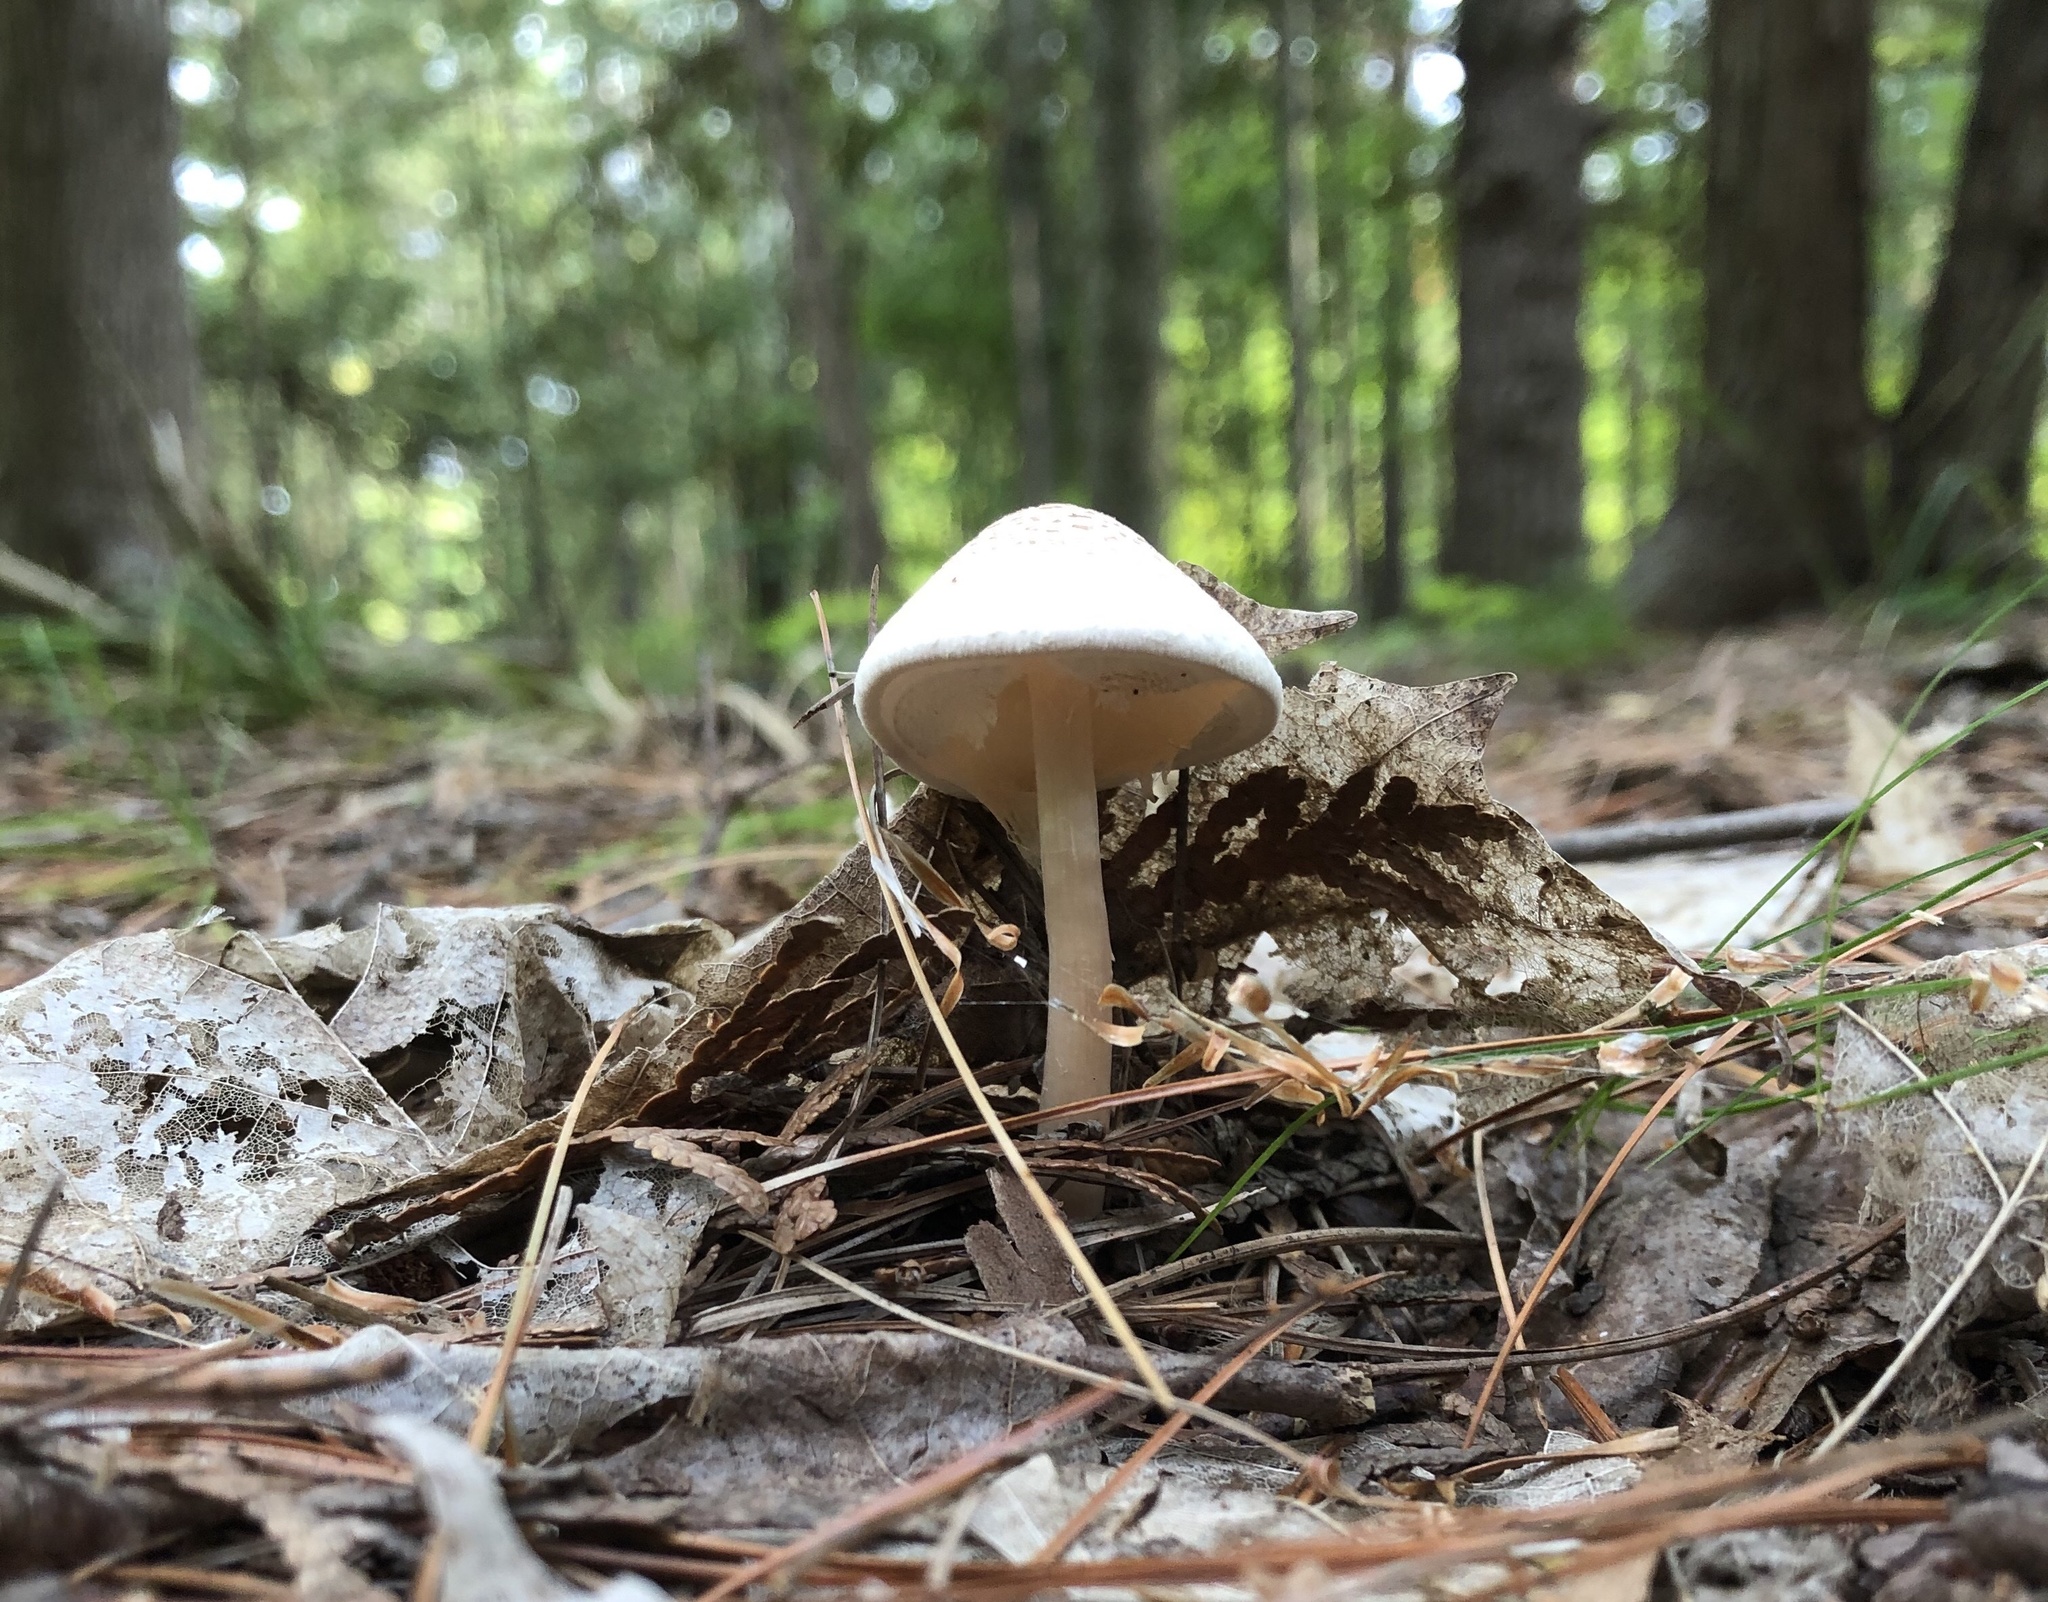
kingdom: Fungi
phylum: Basidiomycota
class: Agaricomycetes
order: Agaricales
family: Agaricaceae
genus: Lepiota
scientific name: Lepiota cristata
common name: Stinking dapperling
